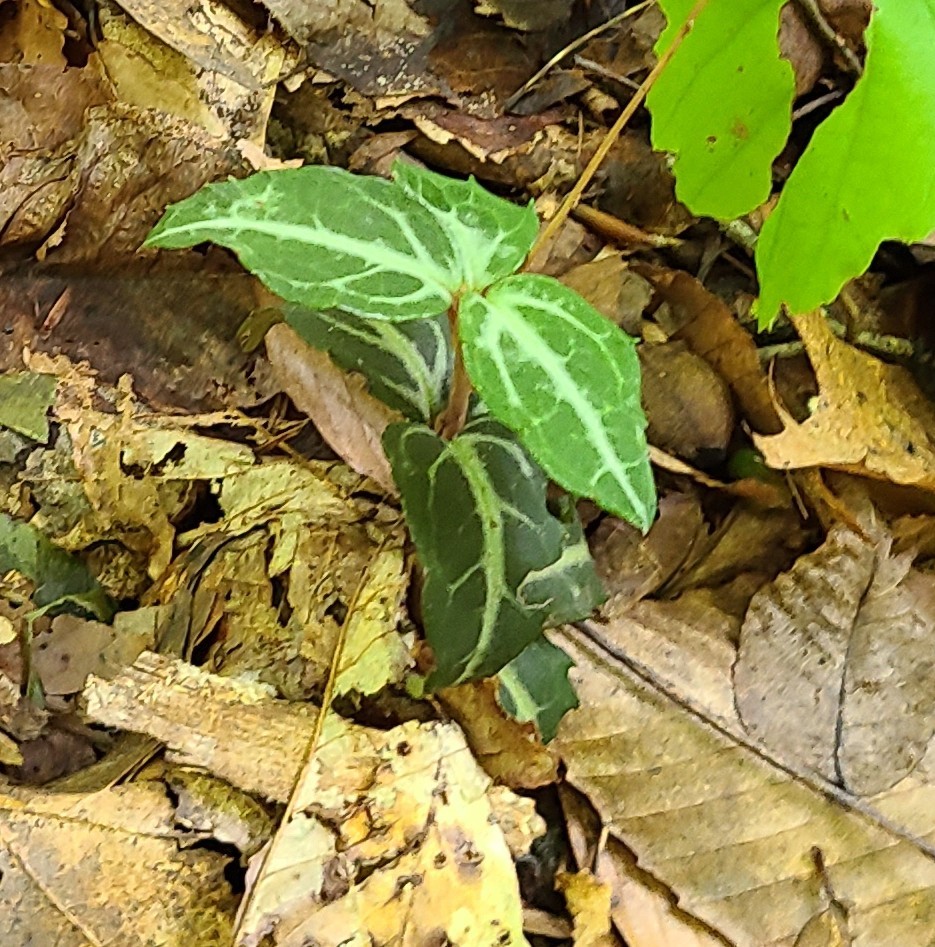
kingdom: Plantae
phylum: Tracheophyta
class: Magnoliopsida
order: Ericales
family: Ericaceae
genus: Chimaphila
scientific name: Chimaphila maculata
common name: Spotted pipsissewa
